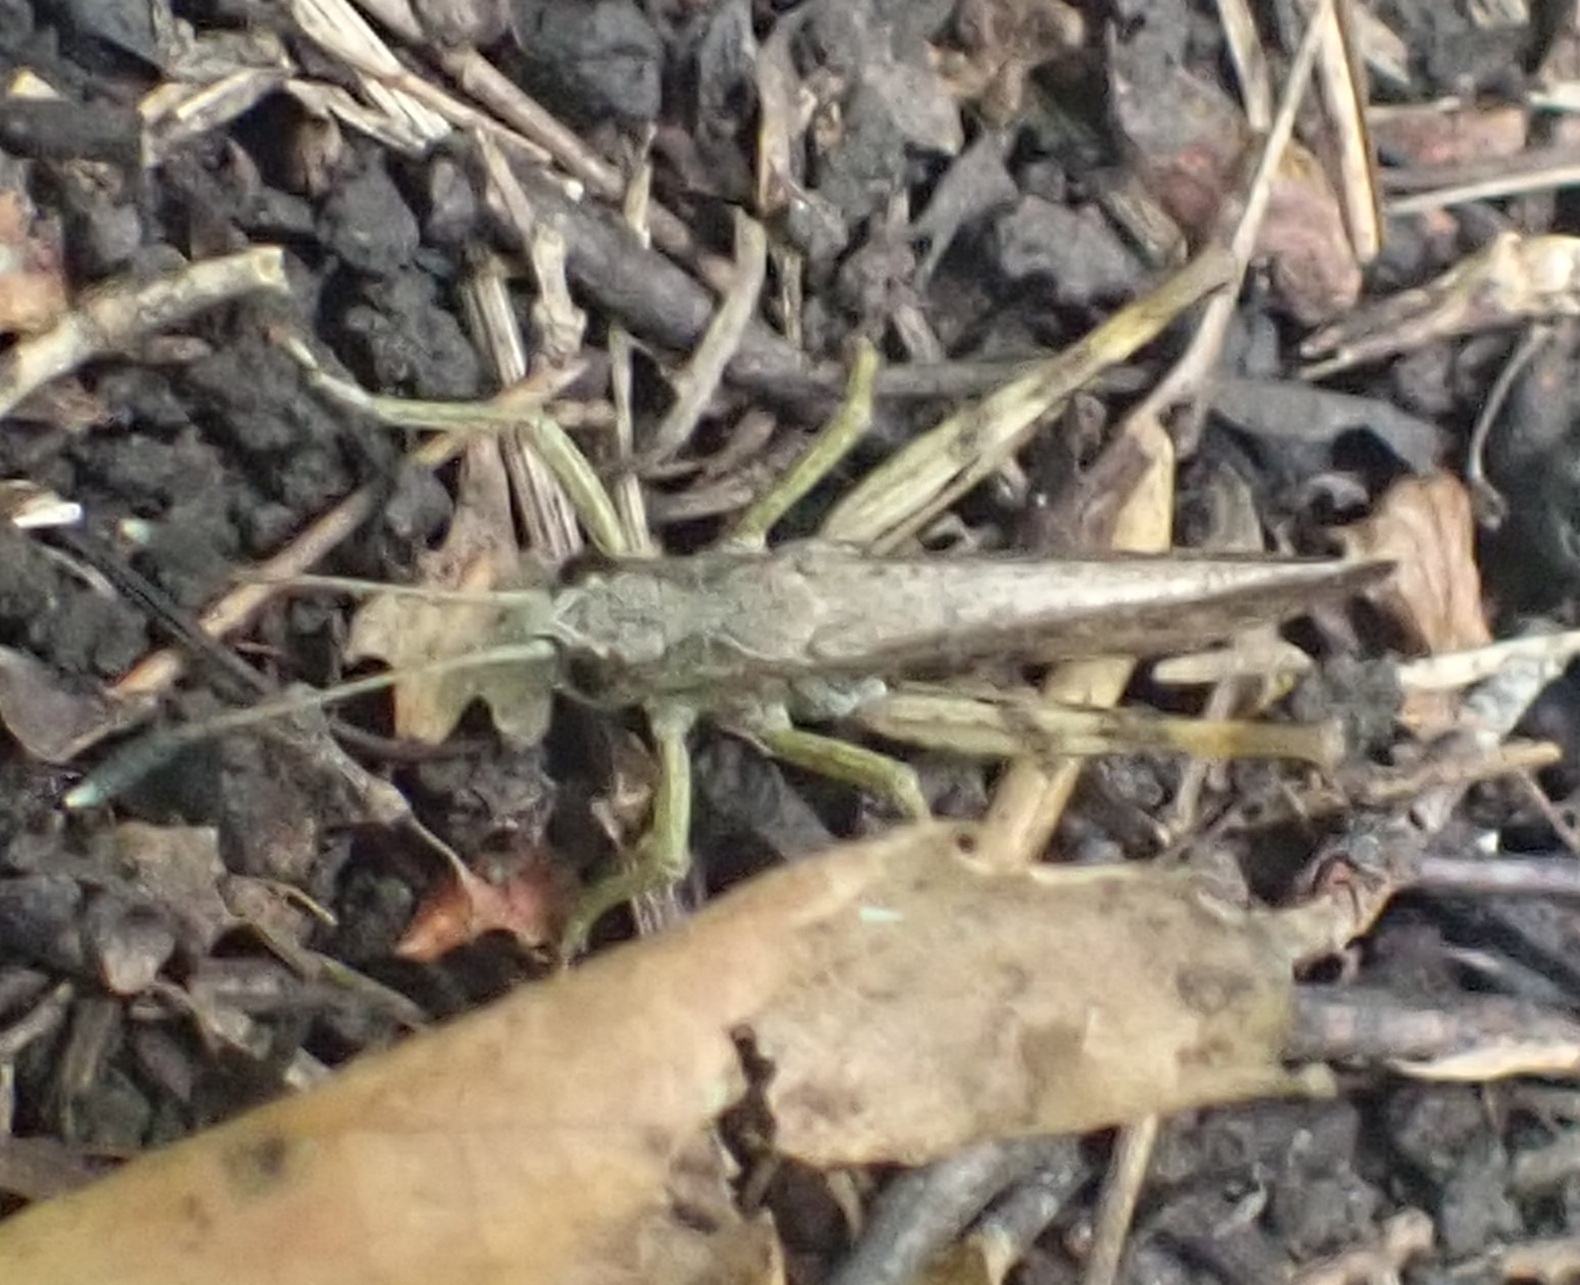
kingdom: Animalia
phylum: Arthropoda
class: Insecta
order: Orthoptera
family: Acrididae
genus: Gomphocerippus
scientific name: Gomphocerippus rufus
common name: Rufous grasshopper
